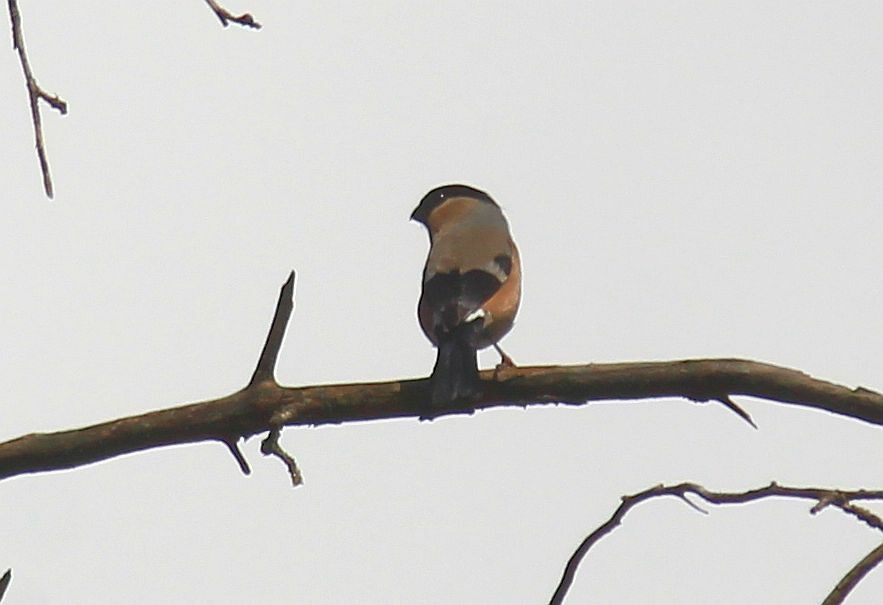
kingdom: Animalia
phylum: Chordata
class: Aves
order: Passeriformes
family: Fringillidae
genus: Pyrrhula
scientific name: Pyrrhula pyrrhula
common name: Eurasian bullfinch
